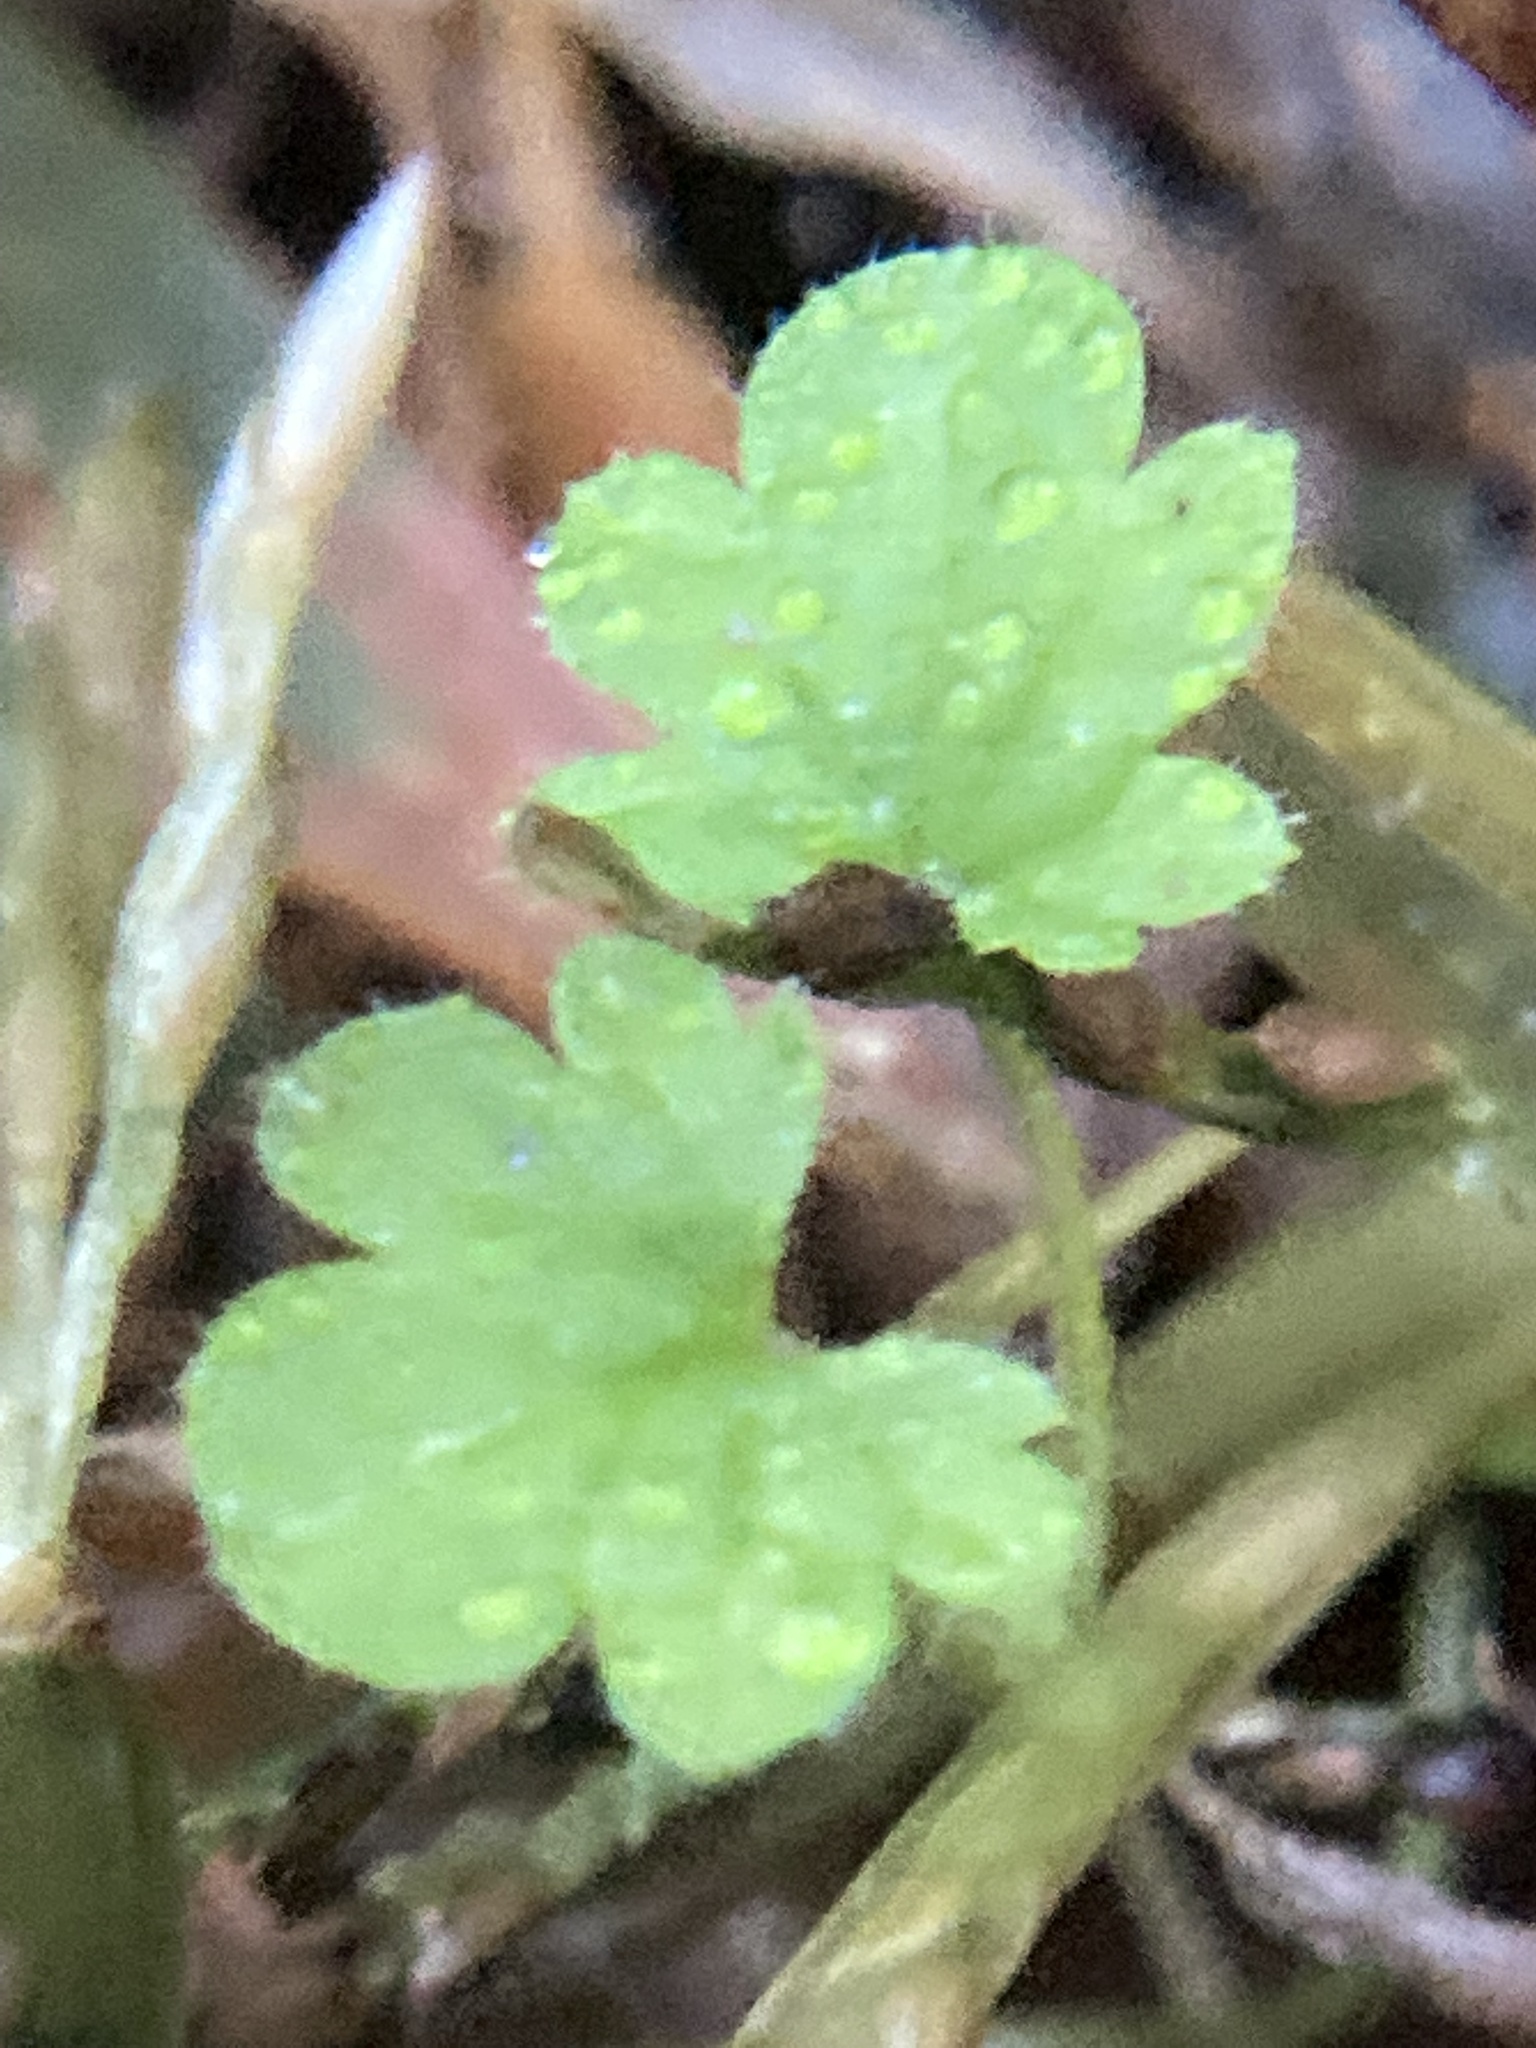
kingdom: Plantae
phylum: Tracheophyta
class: Magnoliopsida
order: Lamiales
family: Lamiaceae
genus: Lamium
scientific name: Lamium amplexicaule
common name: Henbit dead-nettle
